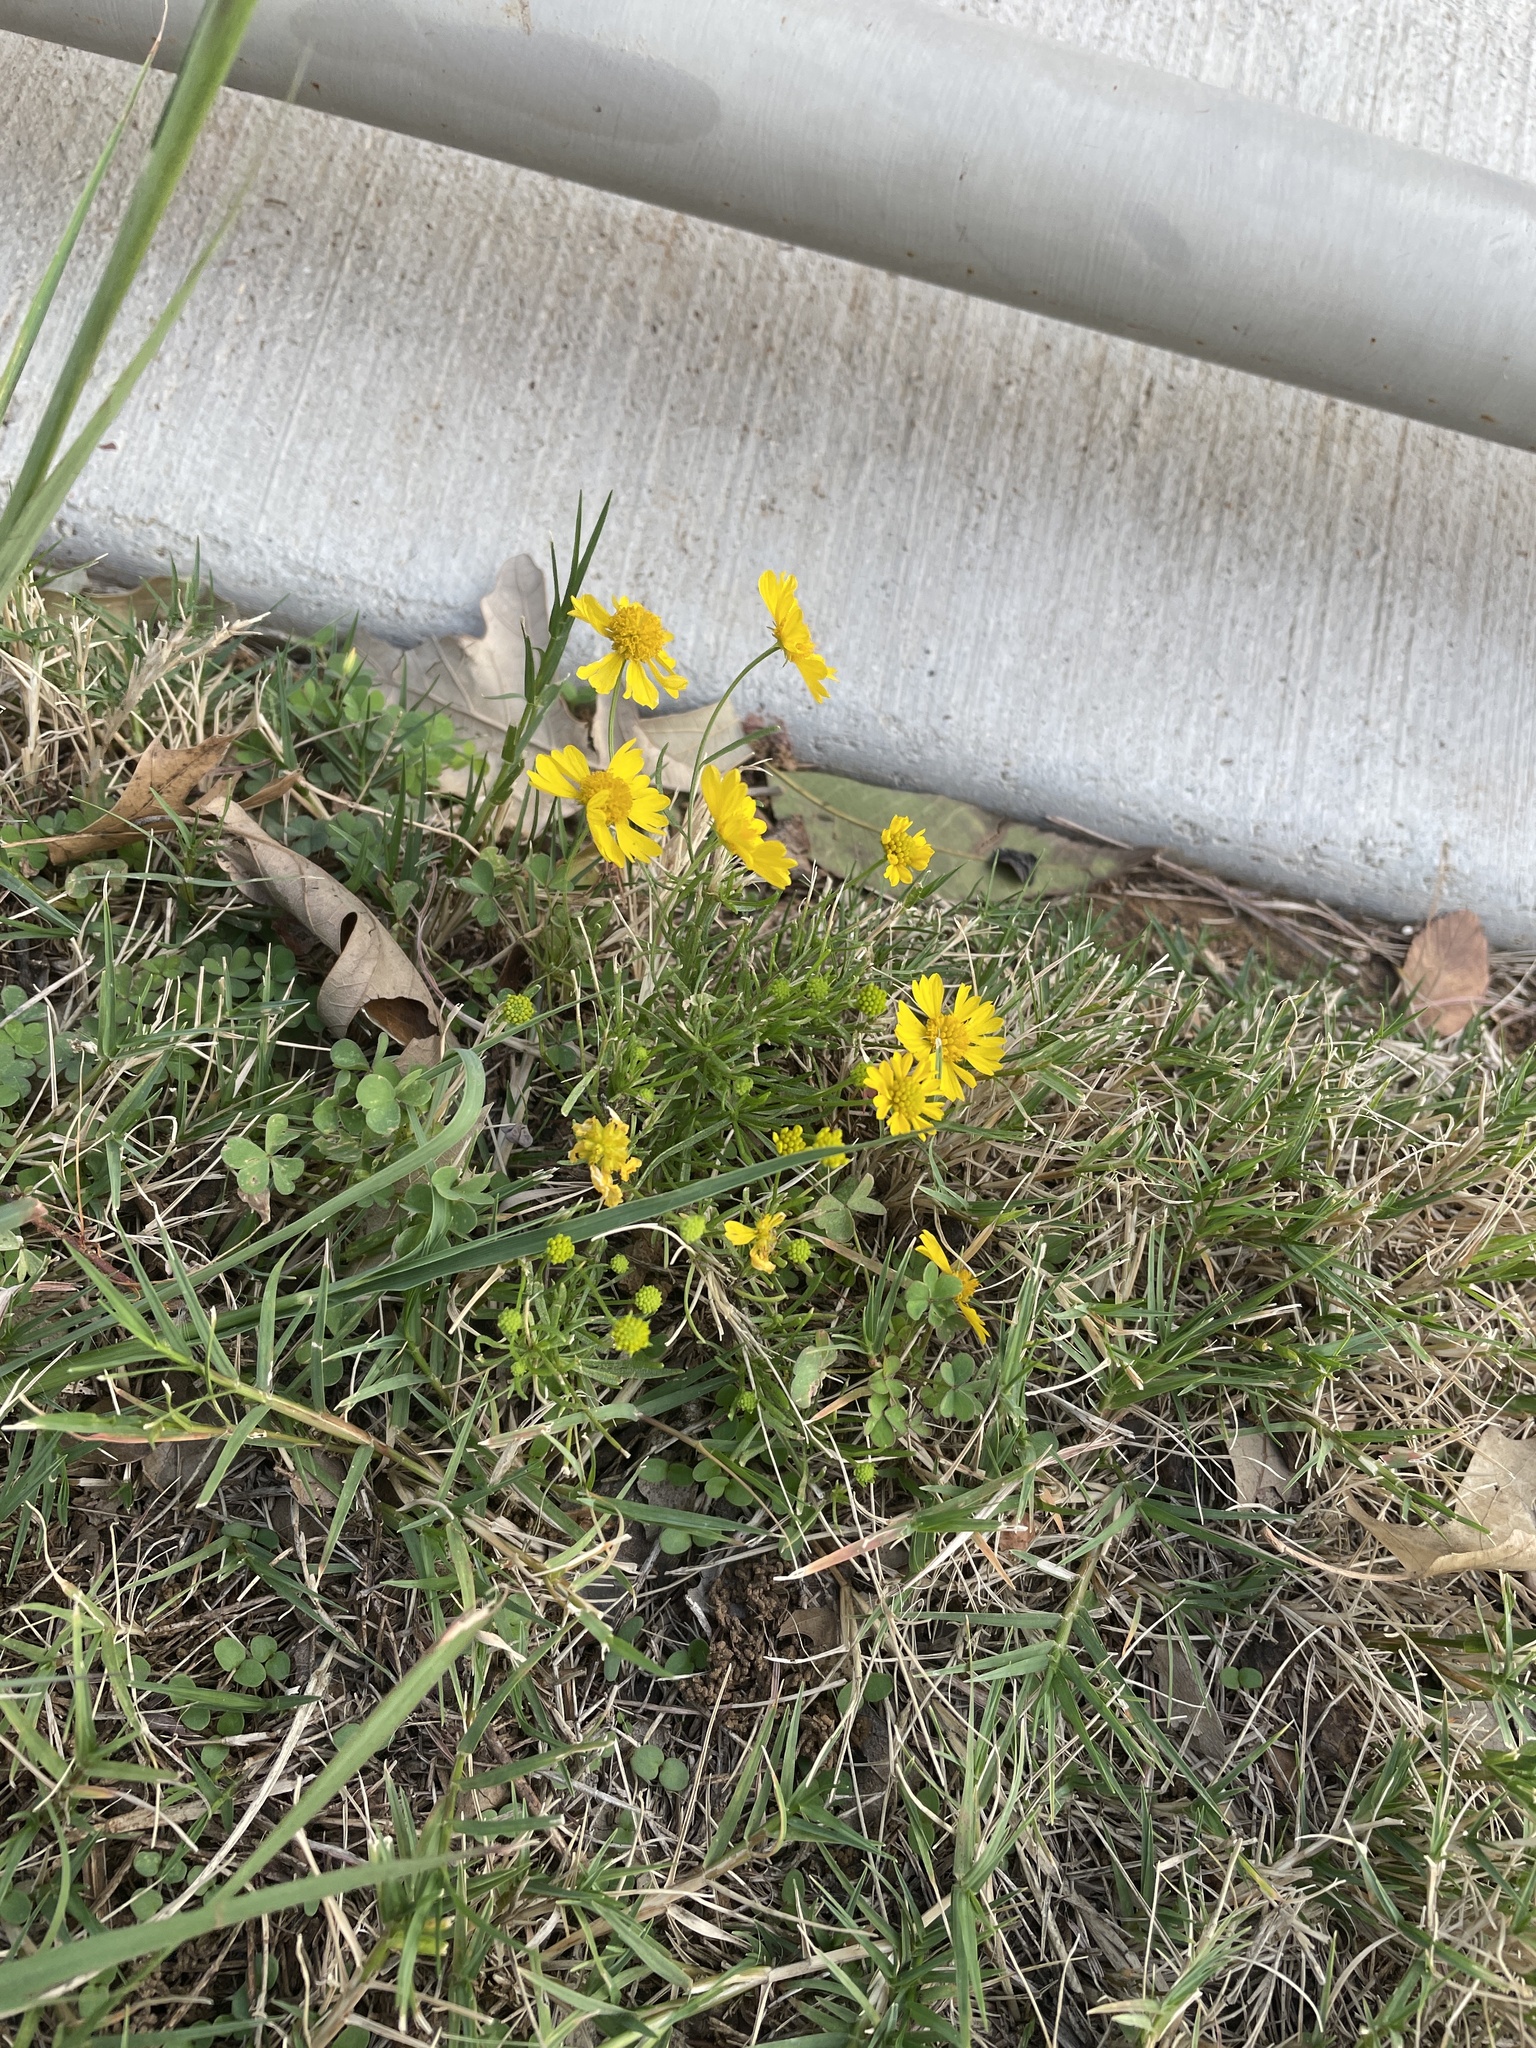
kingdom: Plantae
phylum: Tracheophyta
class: Magnoliopsida
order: Asterales
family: Asteraceae
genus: Helenium
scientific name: Helenium amarum
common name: Bitter sneezeweed
